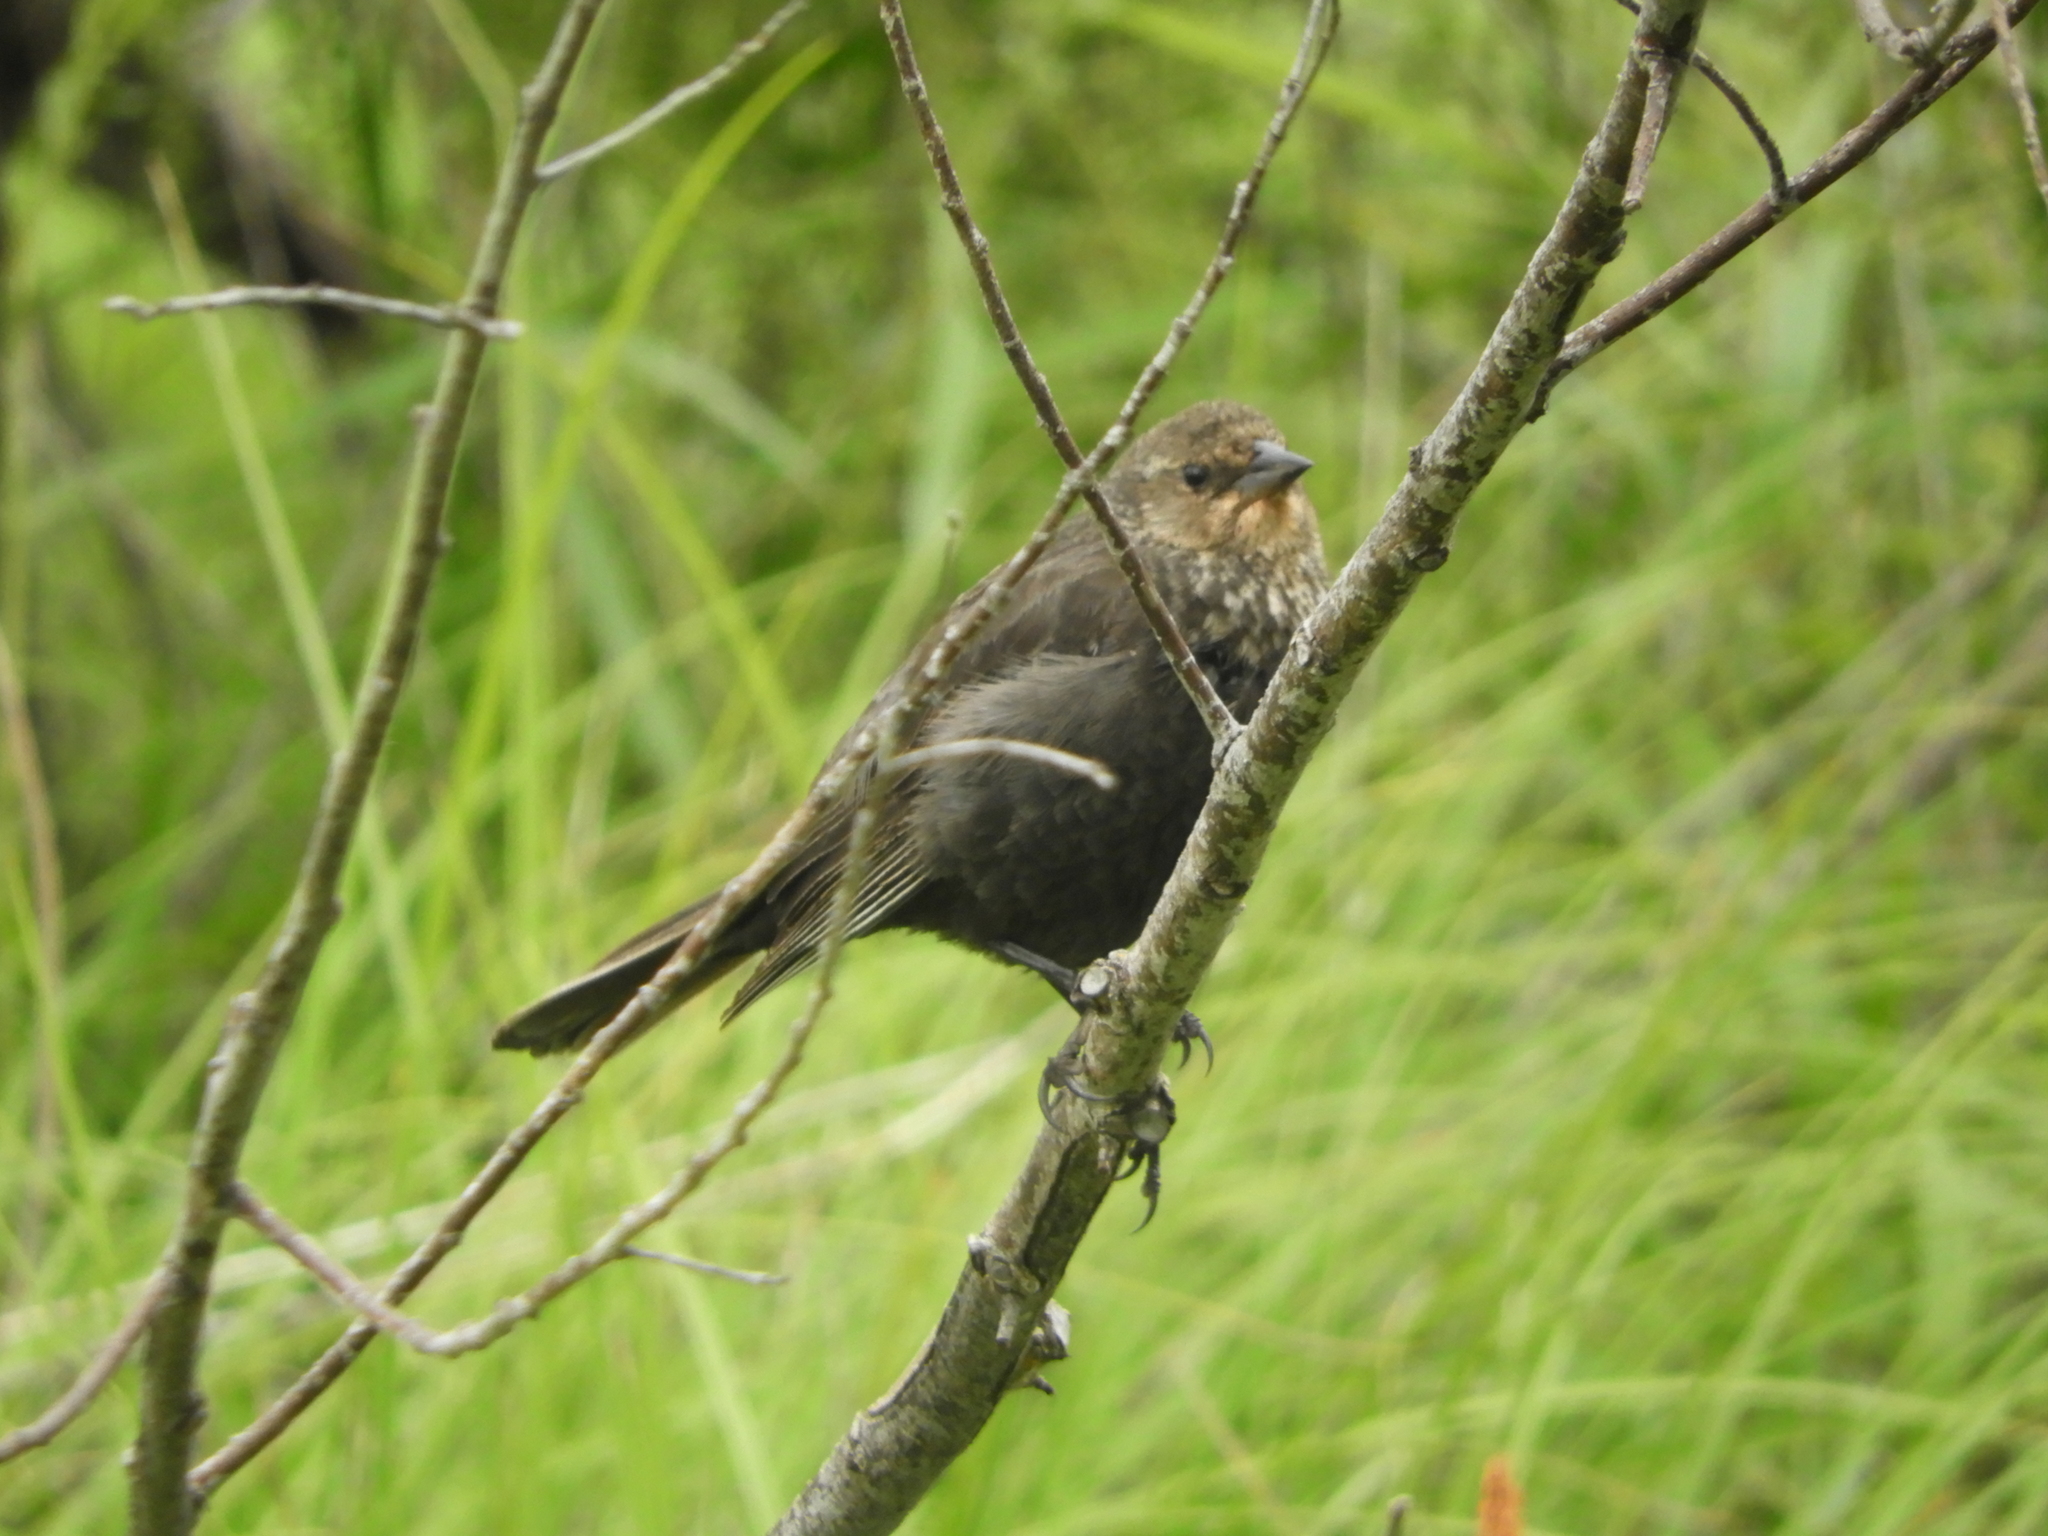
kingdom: Animalia
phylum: Chordata
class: Aves
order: Passeriformes
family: Icteridae
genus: Agelaius
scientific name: Agelaius phoeniceus
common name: Red-winged blackbird
